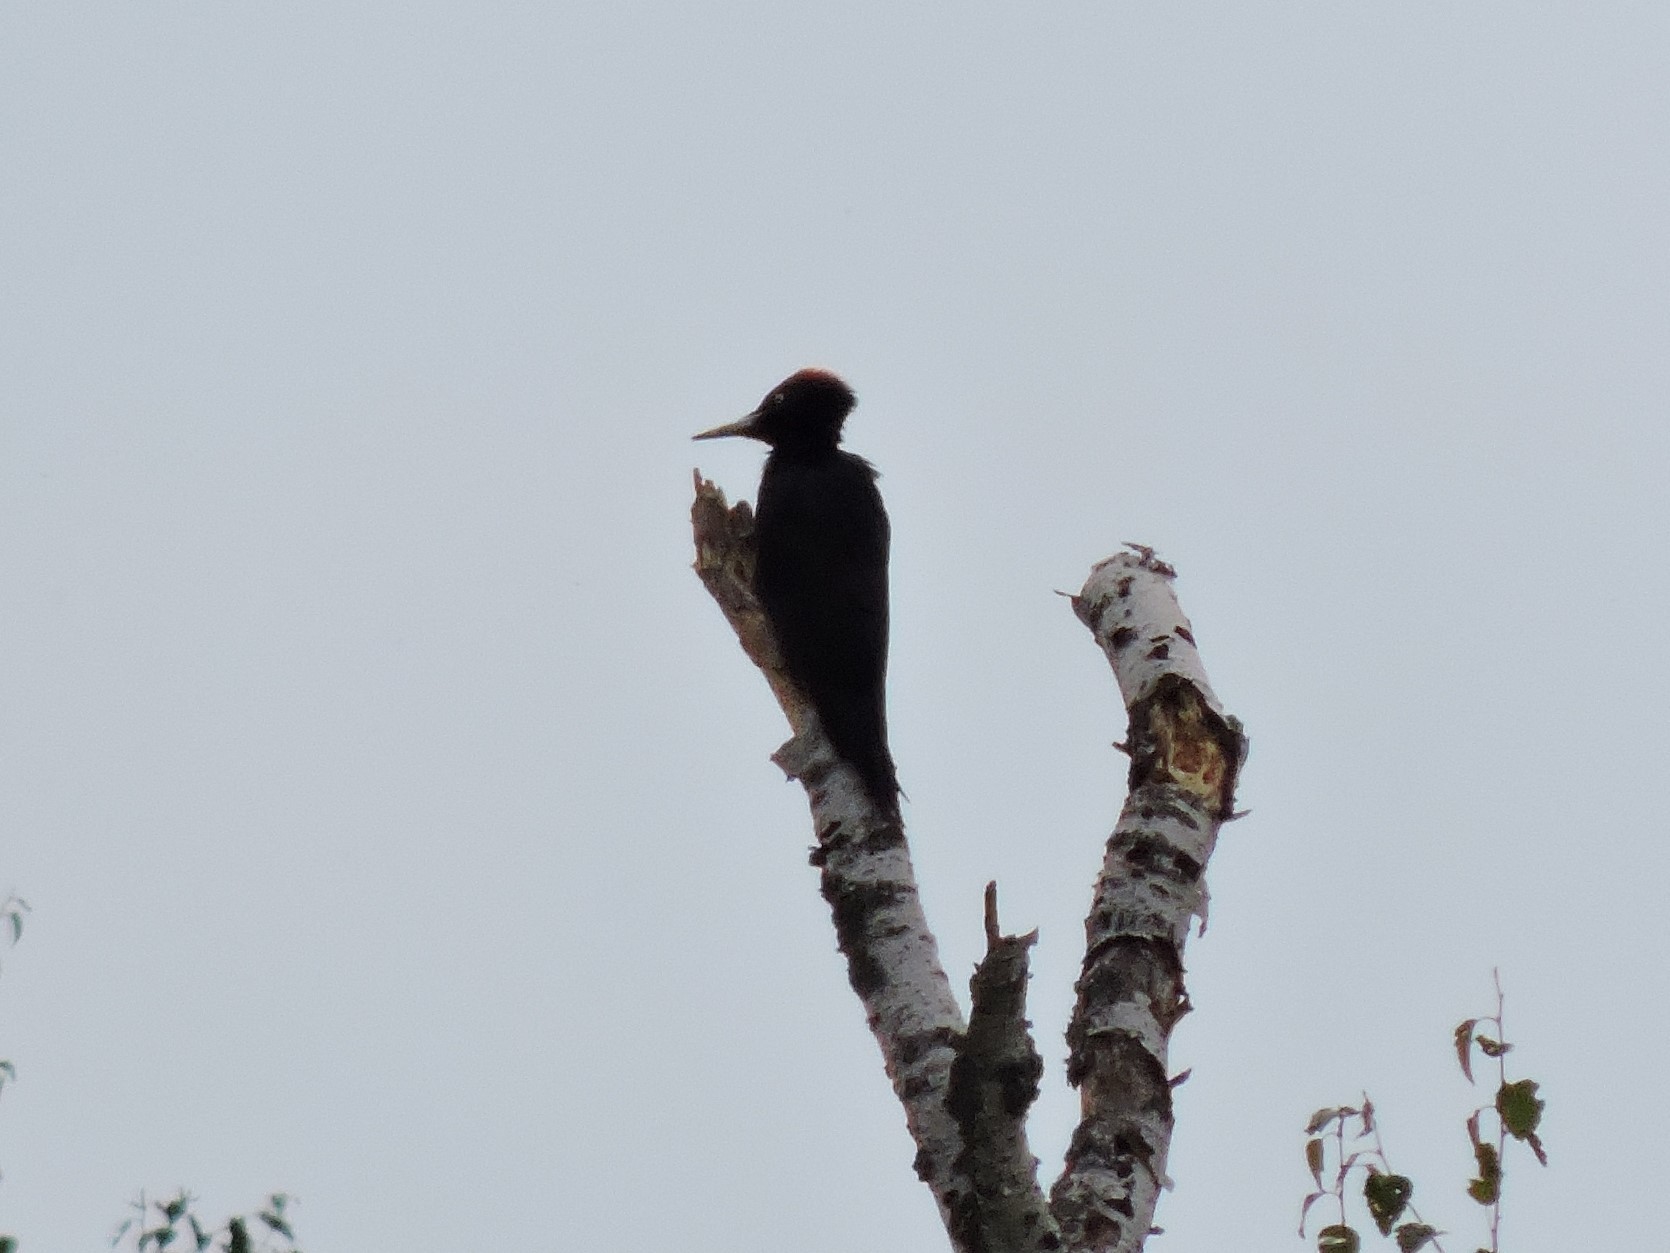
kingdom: Animalia
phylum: Chordata
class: Aves
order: Piciformes
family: Picidae
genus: Dryocopus
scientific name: Dryocopus martius
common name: Black woodpecker
